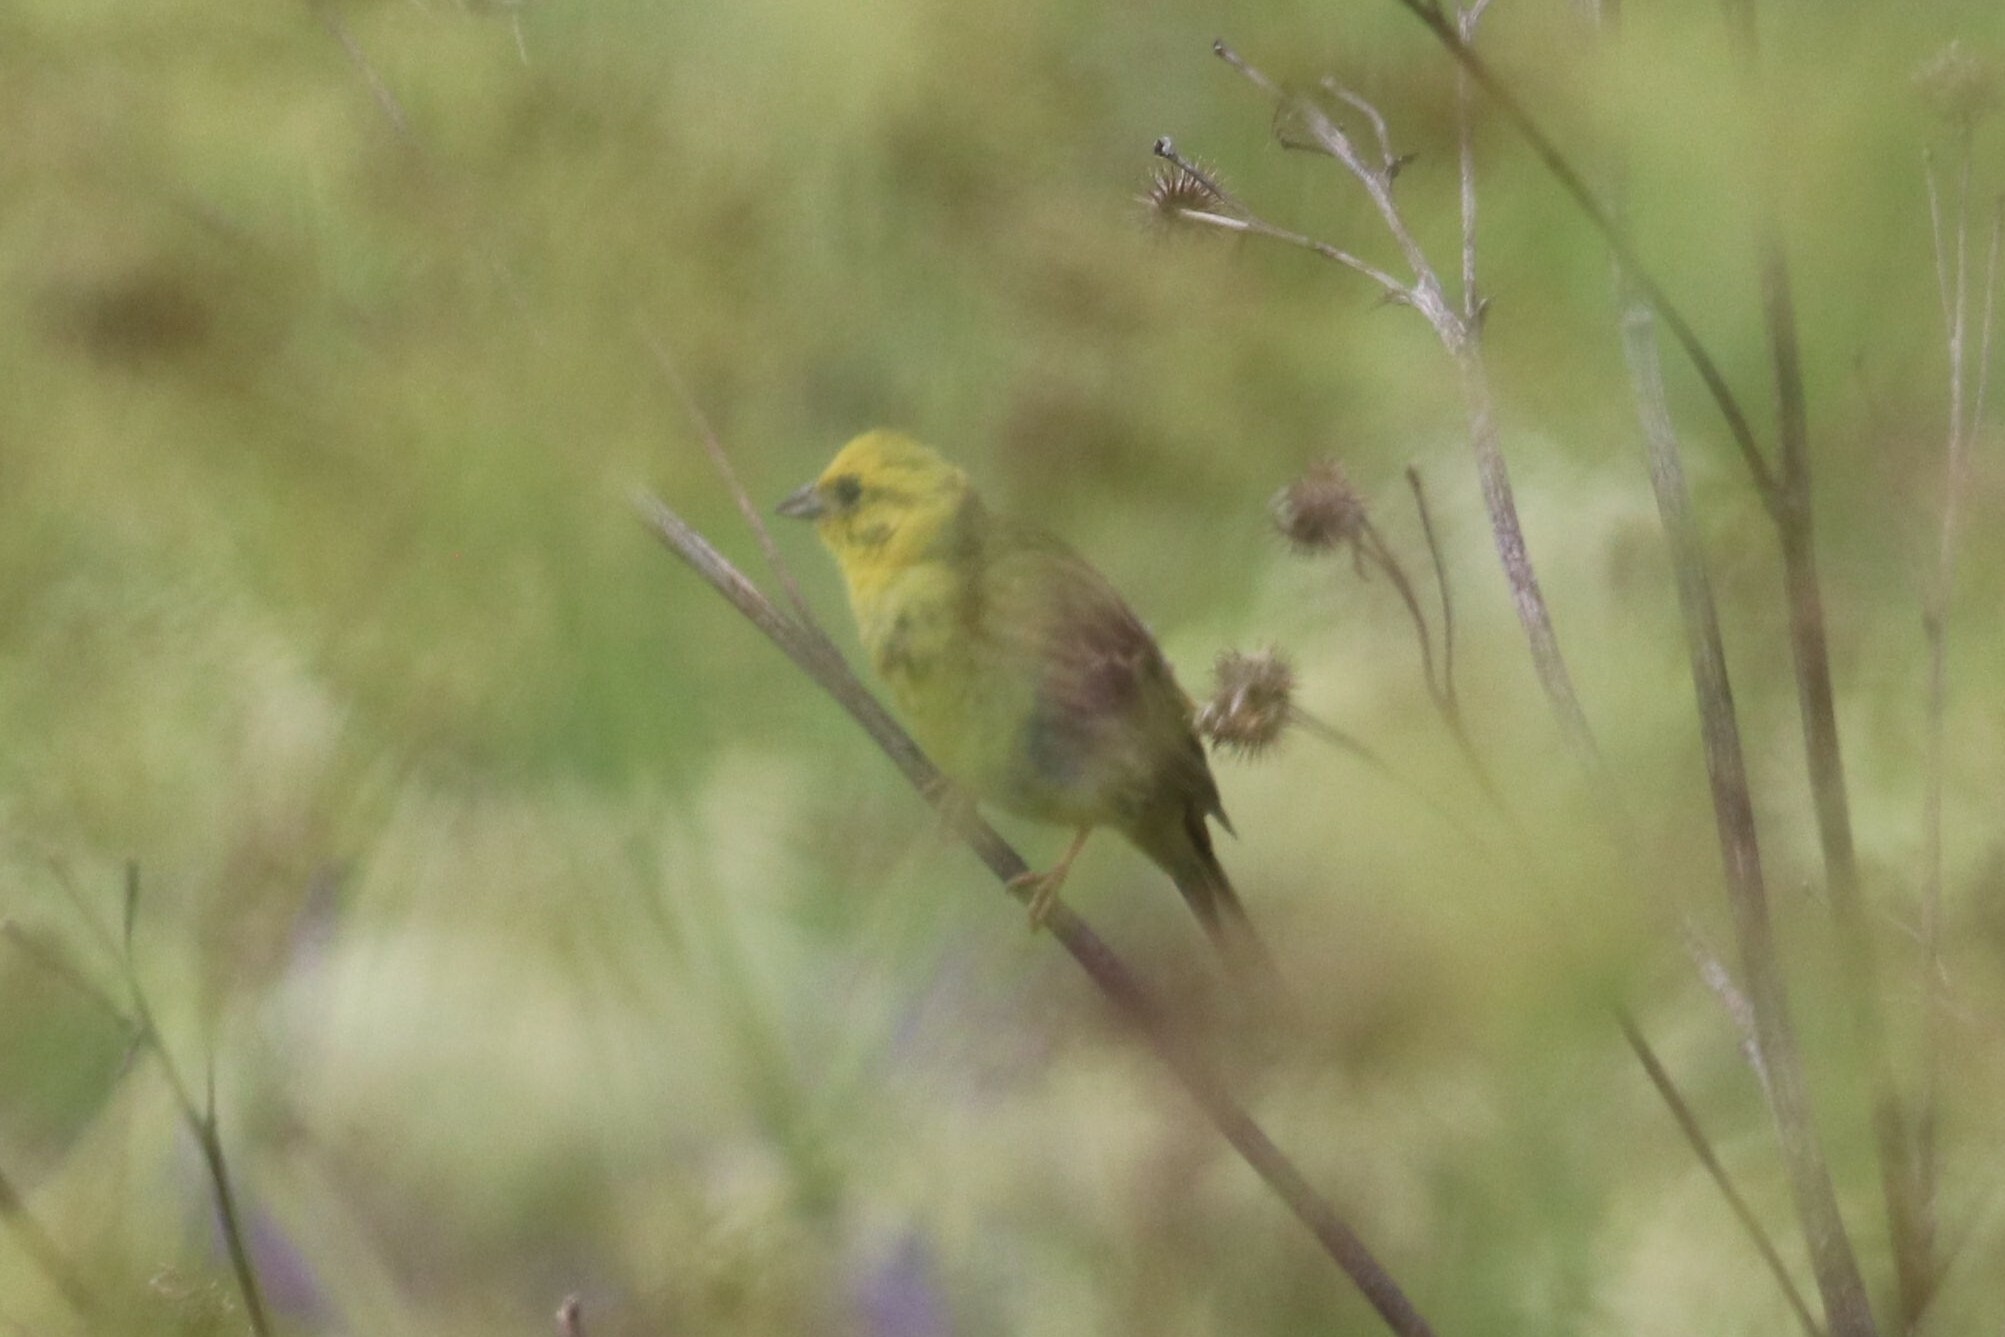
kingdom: Animalia
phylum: Chordata
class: Aves
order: Passeriformes
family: Emberizidae
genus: Emberiza
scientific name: Emberiza citrinella
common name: Yellowhammer
